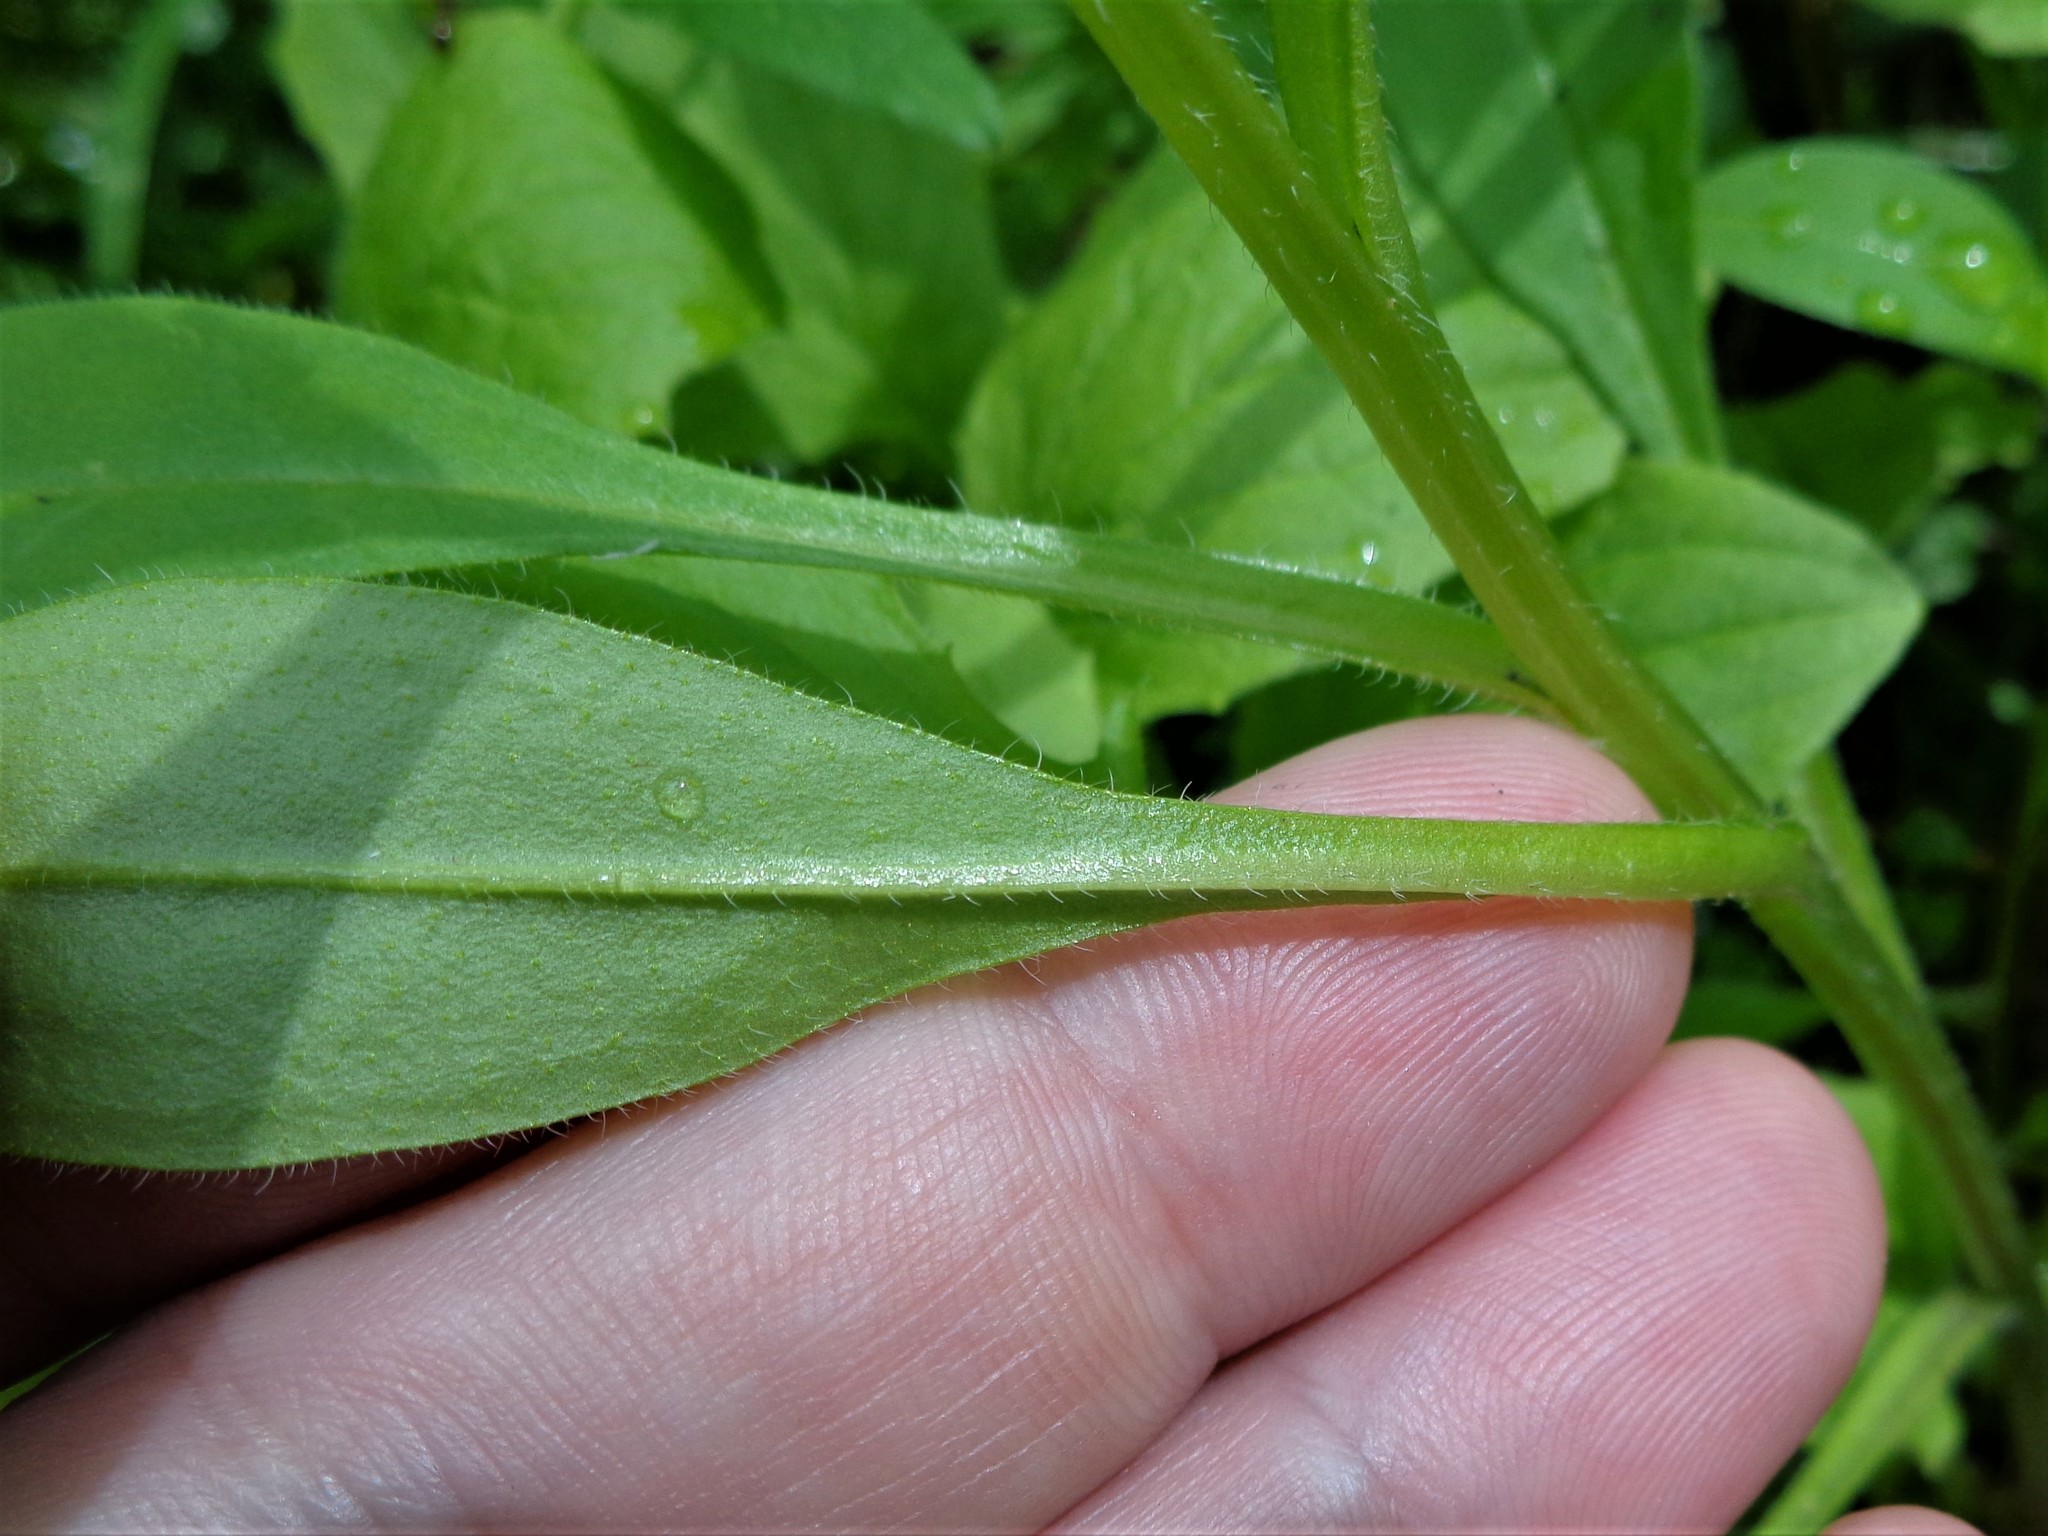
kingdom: Plantae
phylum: Tracheophyta
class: Magnoliopsida
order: Boraginales
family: Boraginaceae
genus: Myosotis
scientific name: Myosotis sparsiflora
